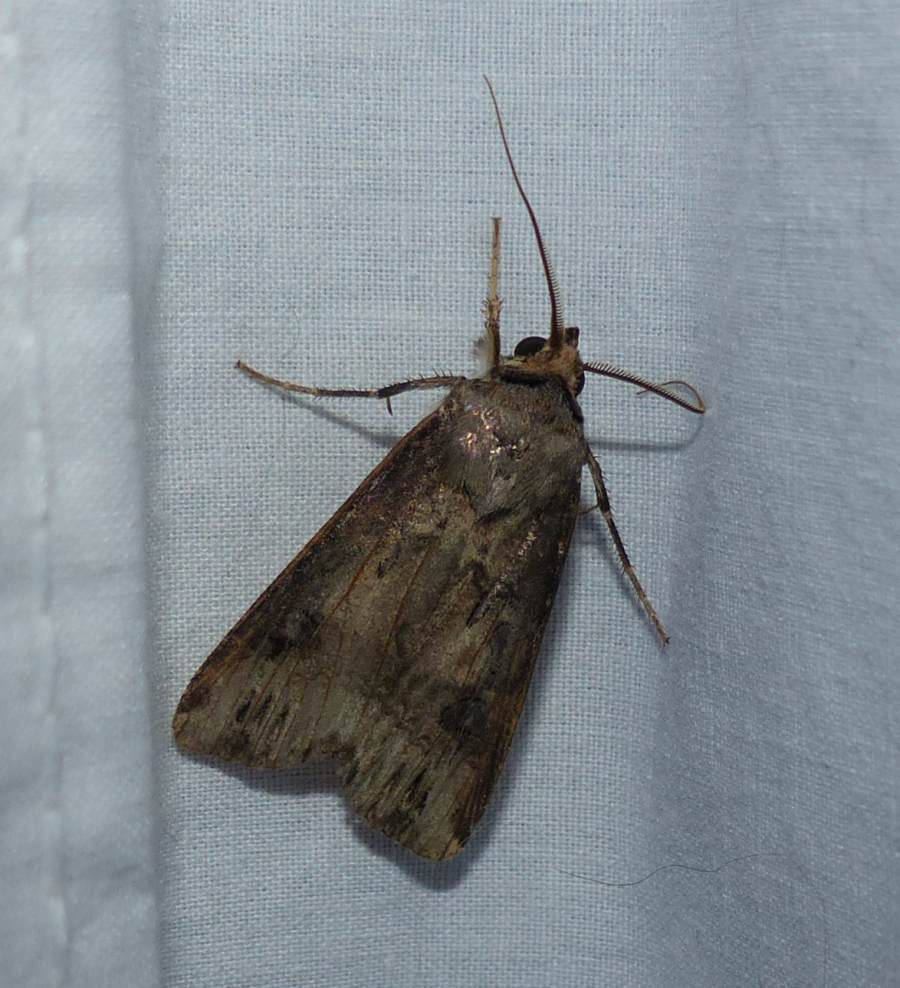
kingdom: Animalia
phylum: Arthropoda
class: Insecta
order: Lepidoptera
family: Noctuidae
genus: Agrotis
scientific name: Agrotis ipsilon
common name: Dark sword-grass
